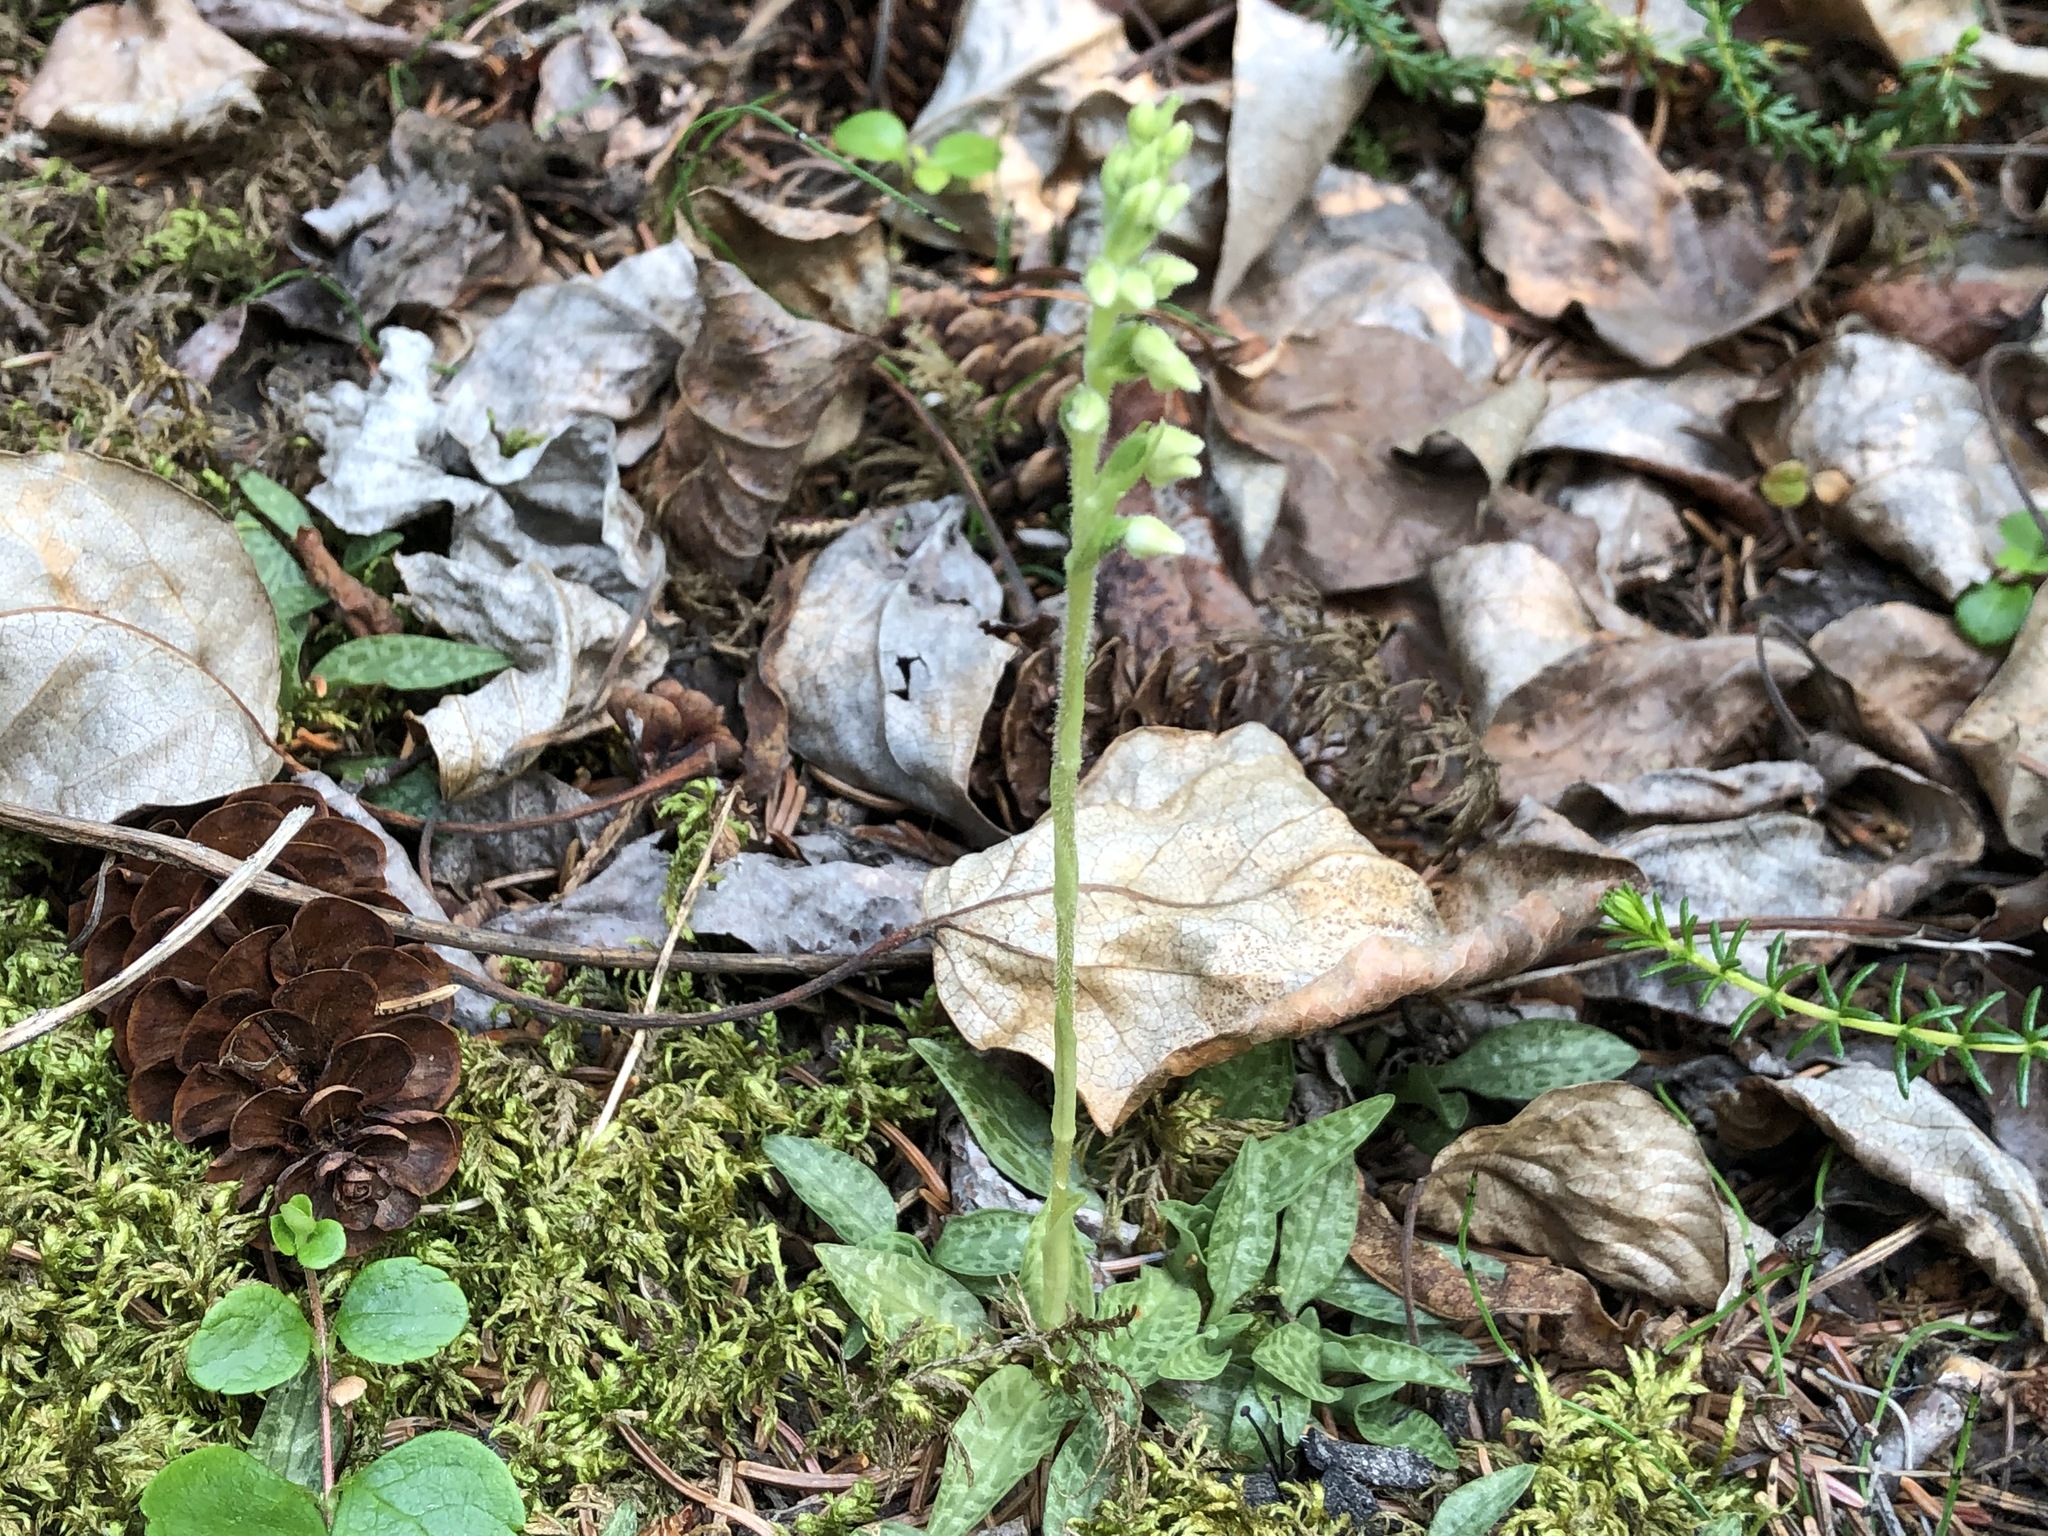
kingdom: Plantae
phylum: Tracheophyta
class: Liliopsida
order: Asparagales
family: Orchidaceae
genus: Goodyera
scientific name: Goodyera repens
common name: Creeping lady's-tresses
